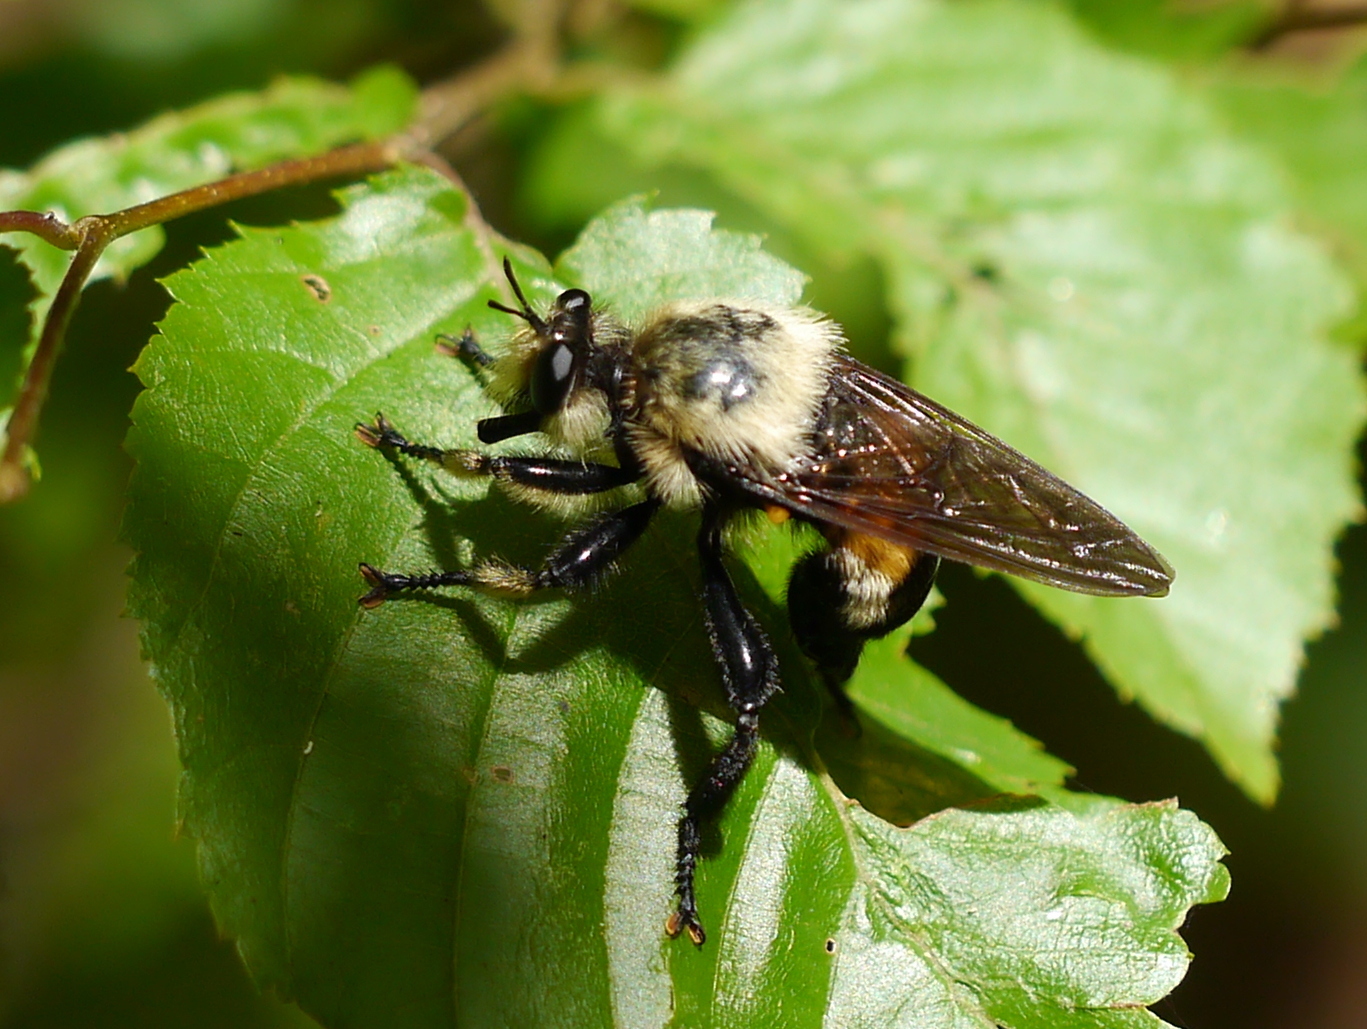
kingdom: Animalia
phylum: Arthropoda
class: Insecta
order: Diptera
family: Asilidae
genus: Laphria
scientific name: Laphria grossa
